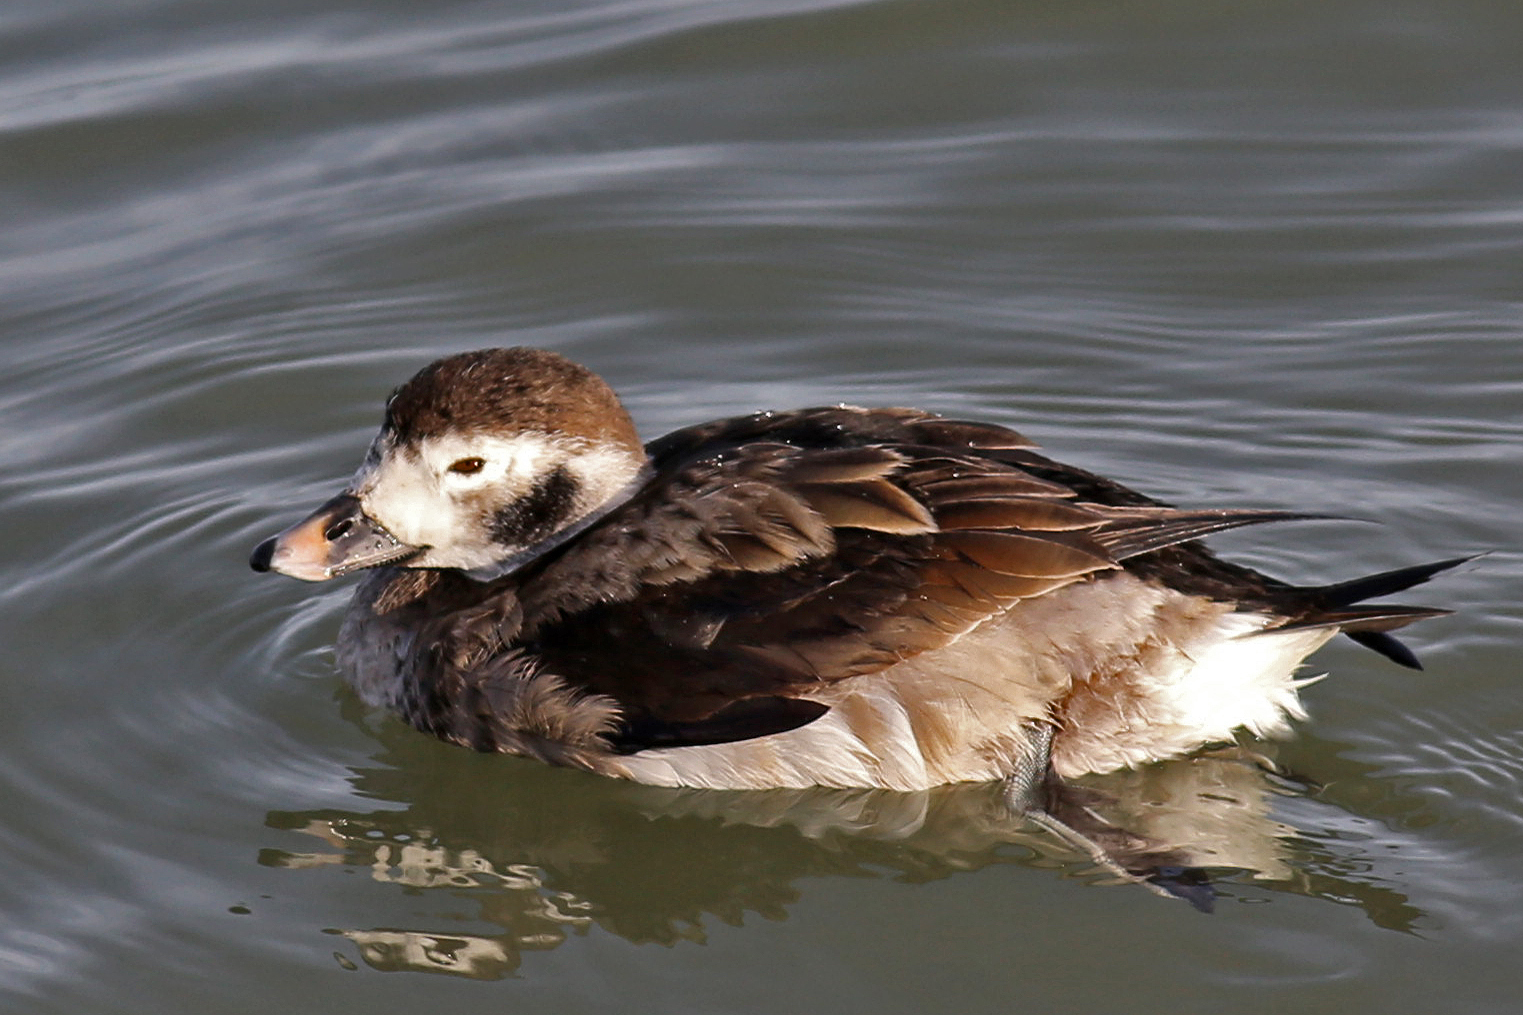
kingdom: Animalia
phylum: Chordata
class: Aves
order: Anseriformes
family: Anatidae
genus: Clangula
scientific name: Clangula hyemalis
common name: Long-tailed duck
